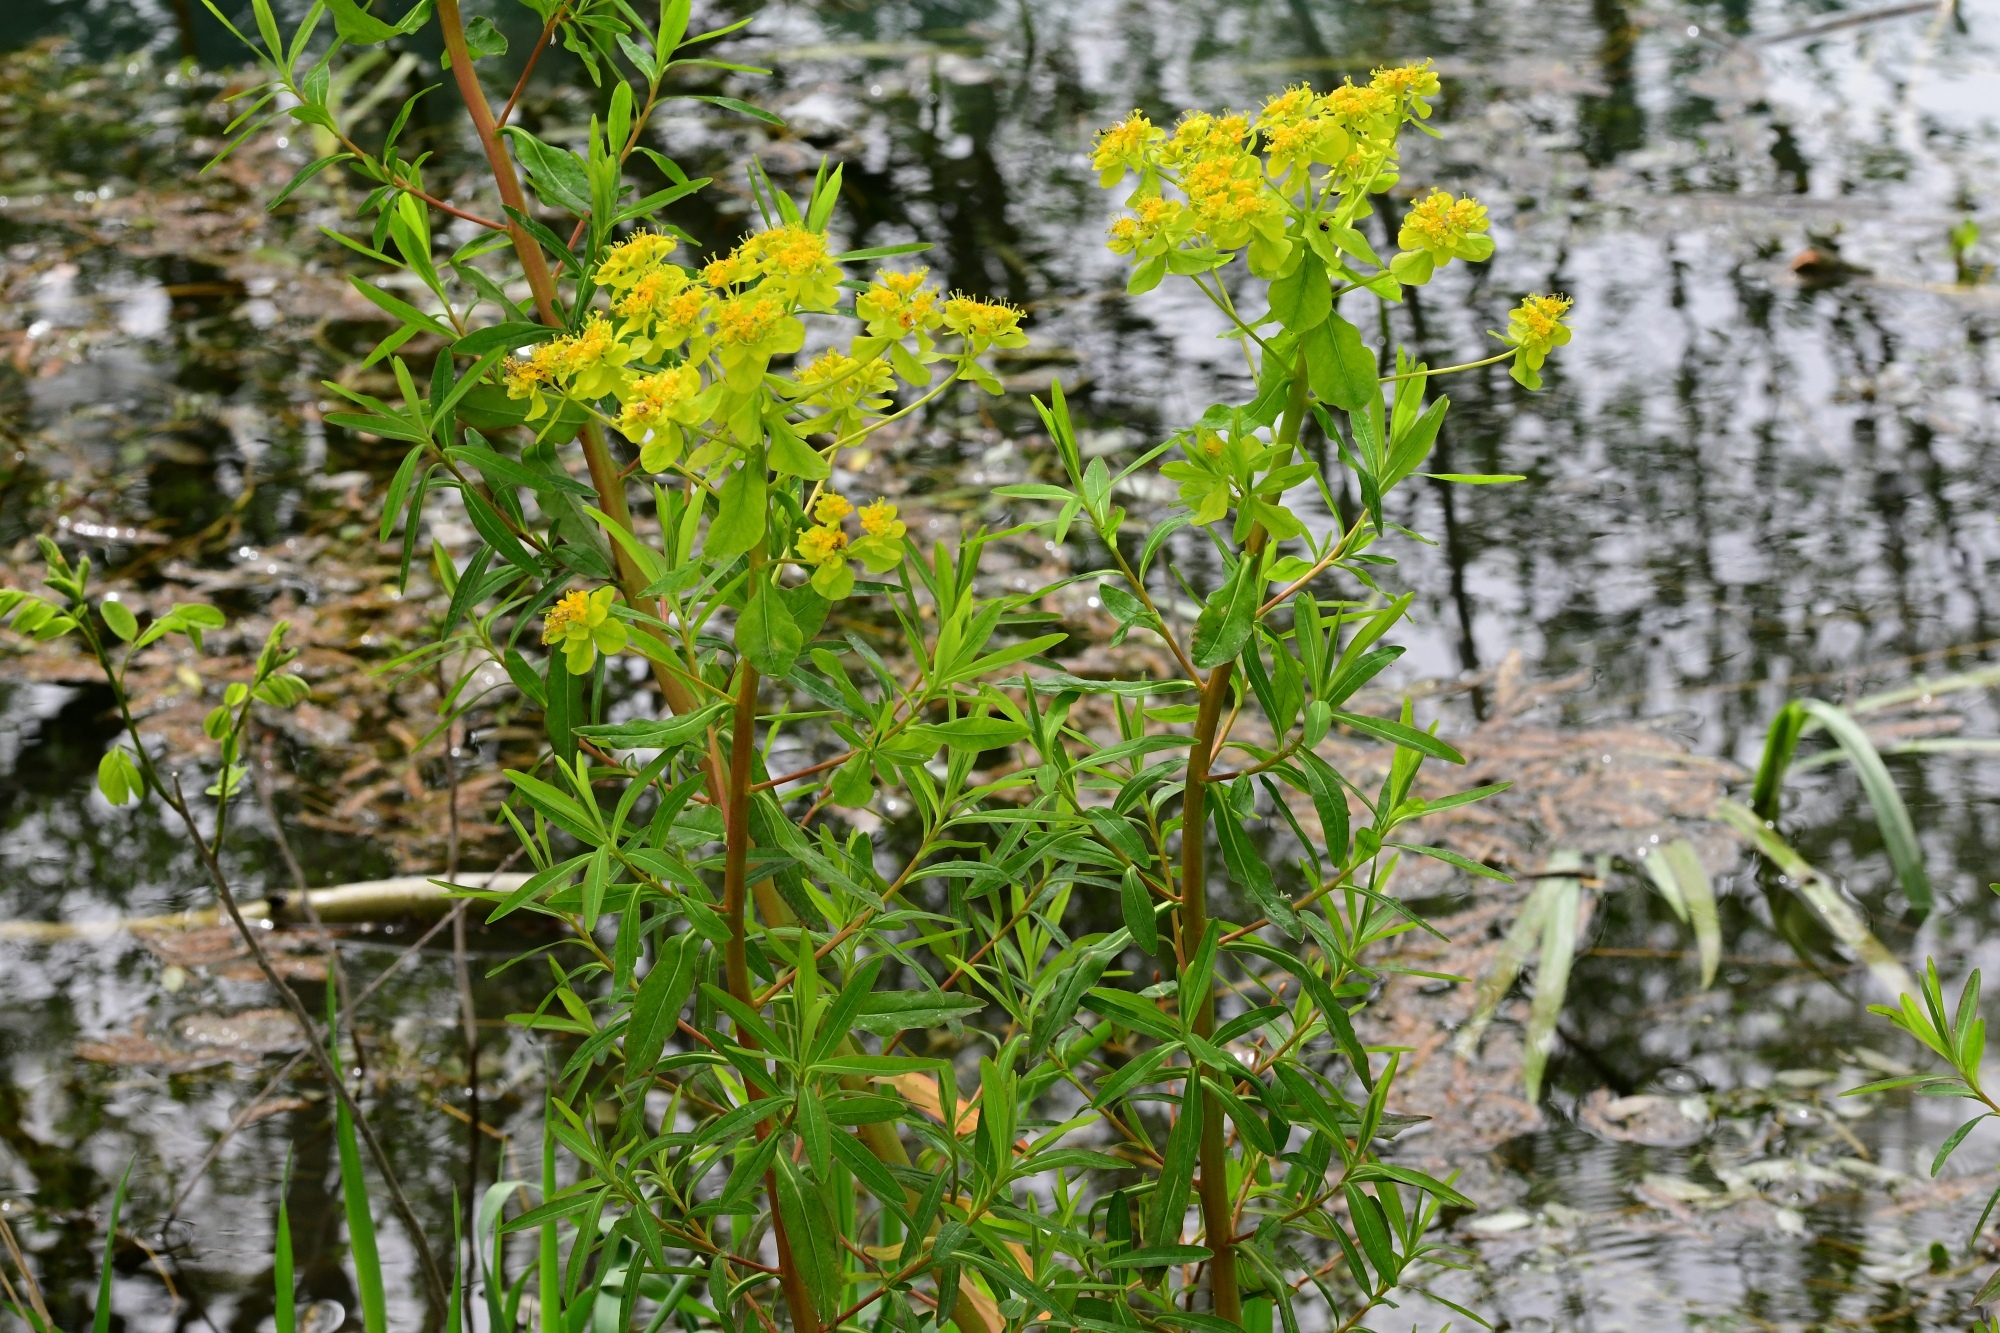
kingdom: Plantae
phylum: Tracheophyta
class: Magnoliopsida
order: Malpighiales
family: Euphorbiaceae
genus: Euphorbia
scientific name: Euphorbia palustris
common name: Marsh spurge
